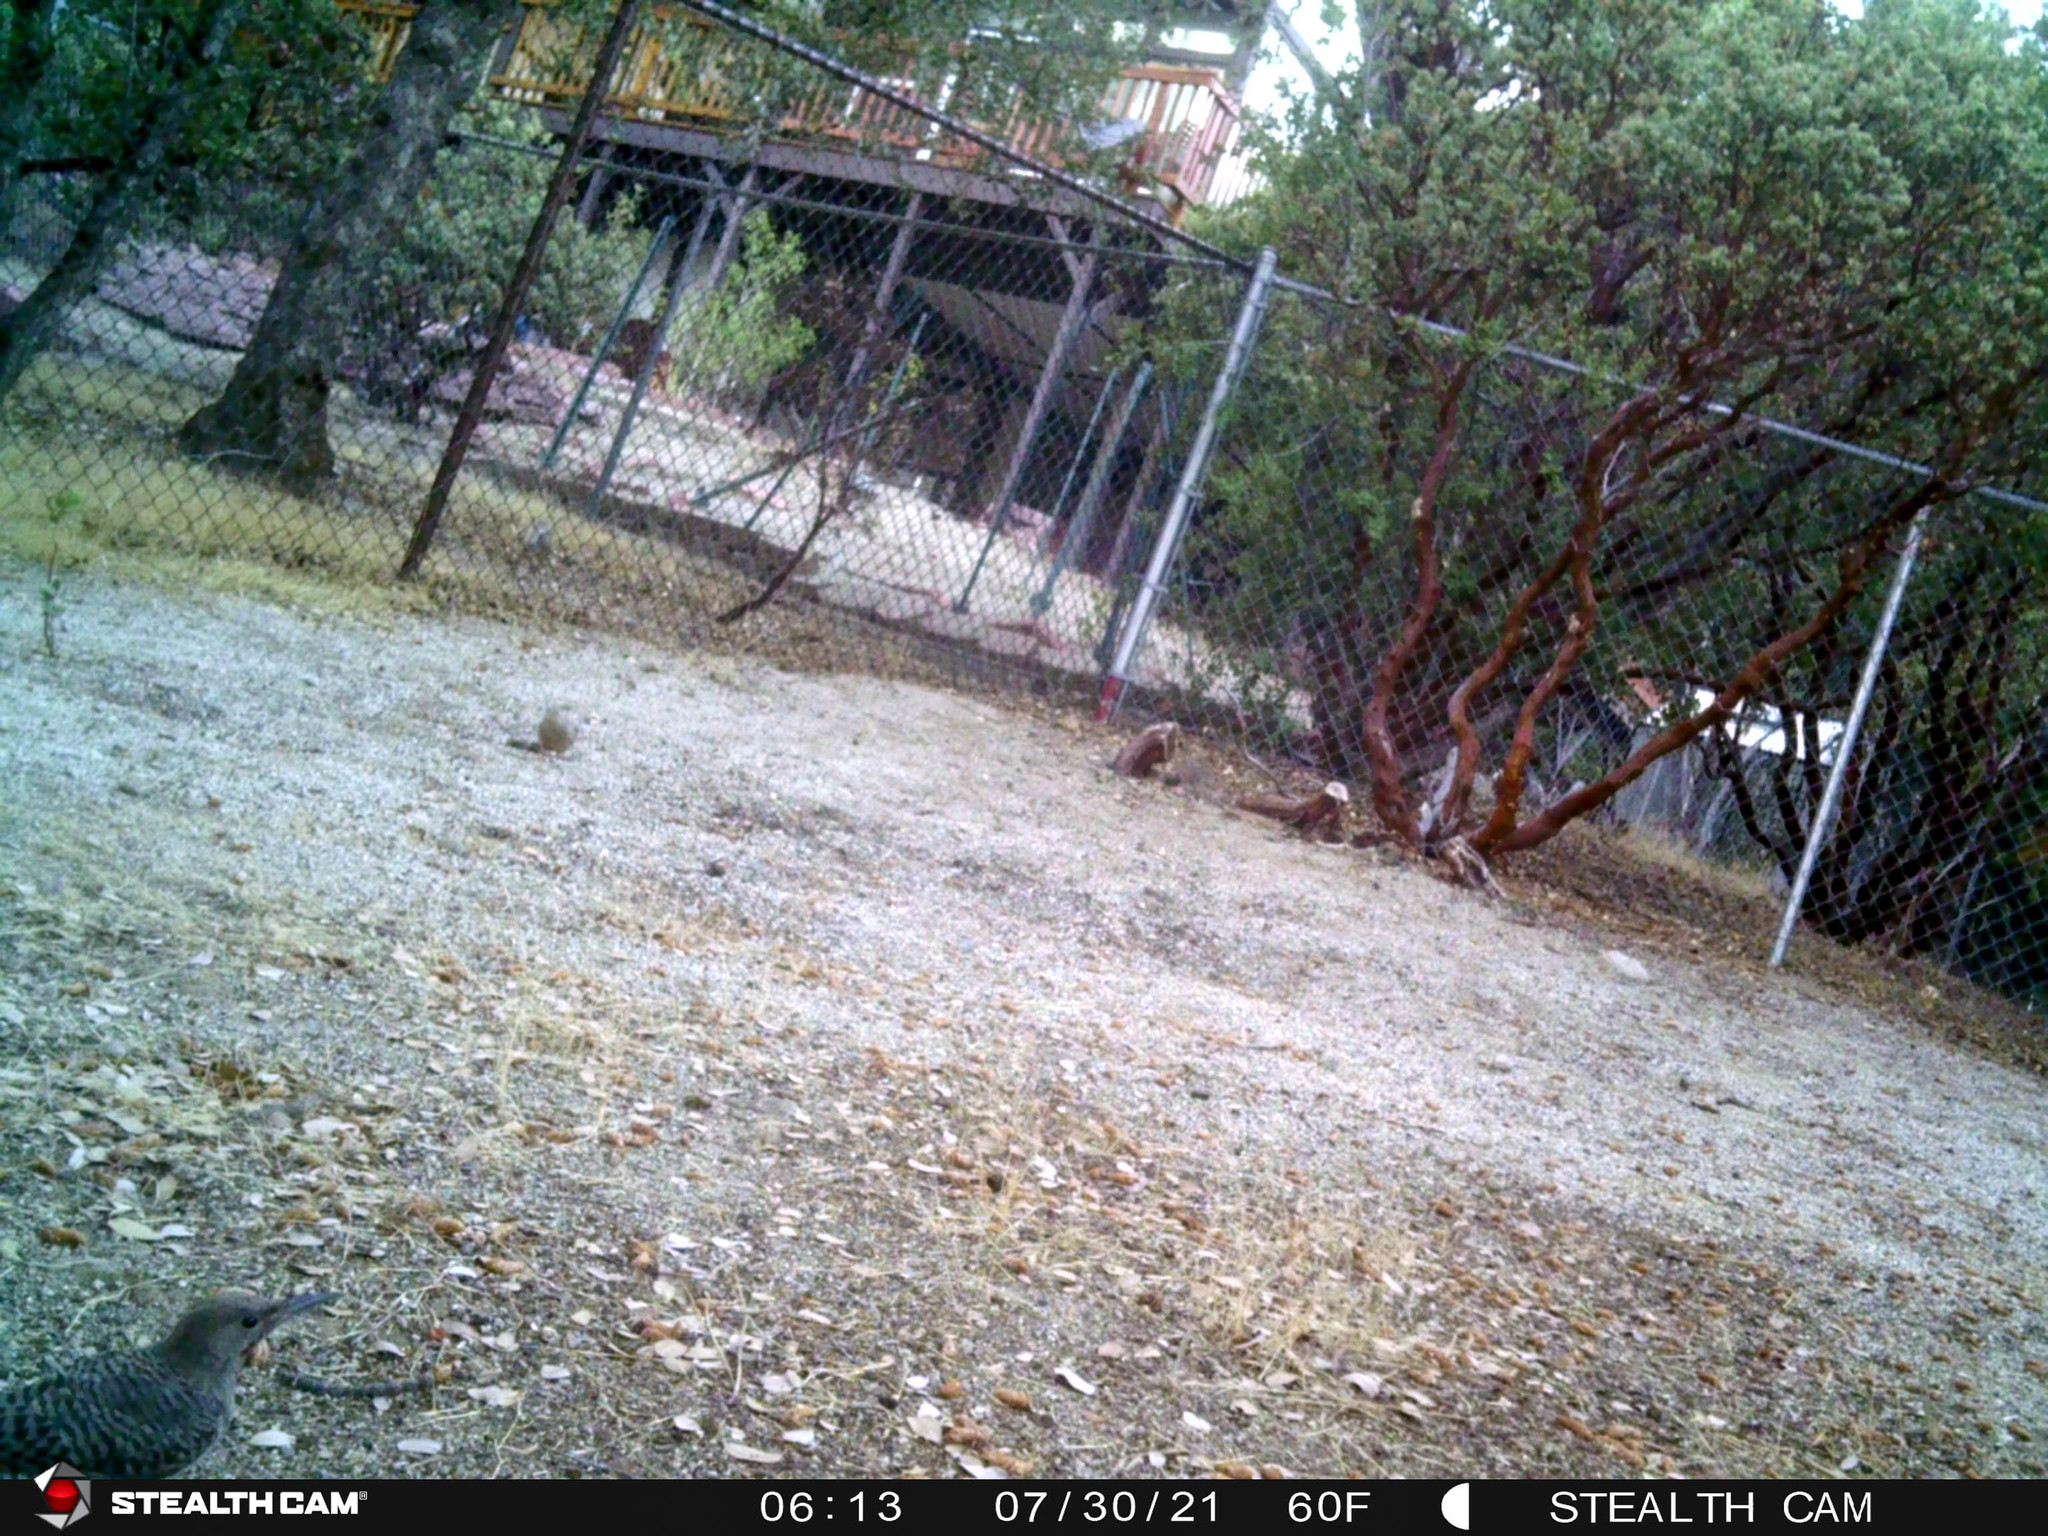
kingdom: Animalia
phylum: Chordata
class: Aves
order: Piciformes
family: Picidae
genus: Colaptes
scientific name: Colaptes auratus
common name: Northern flicker
